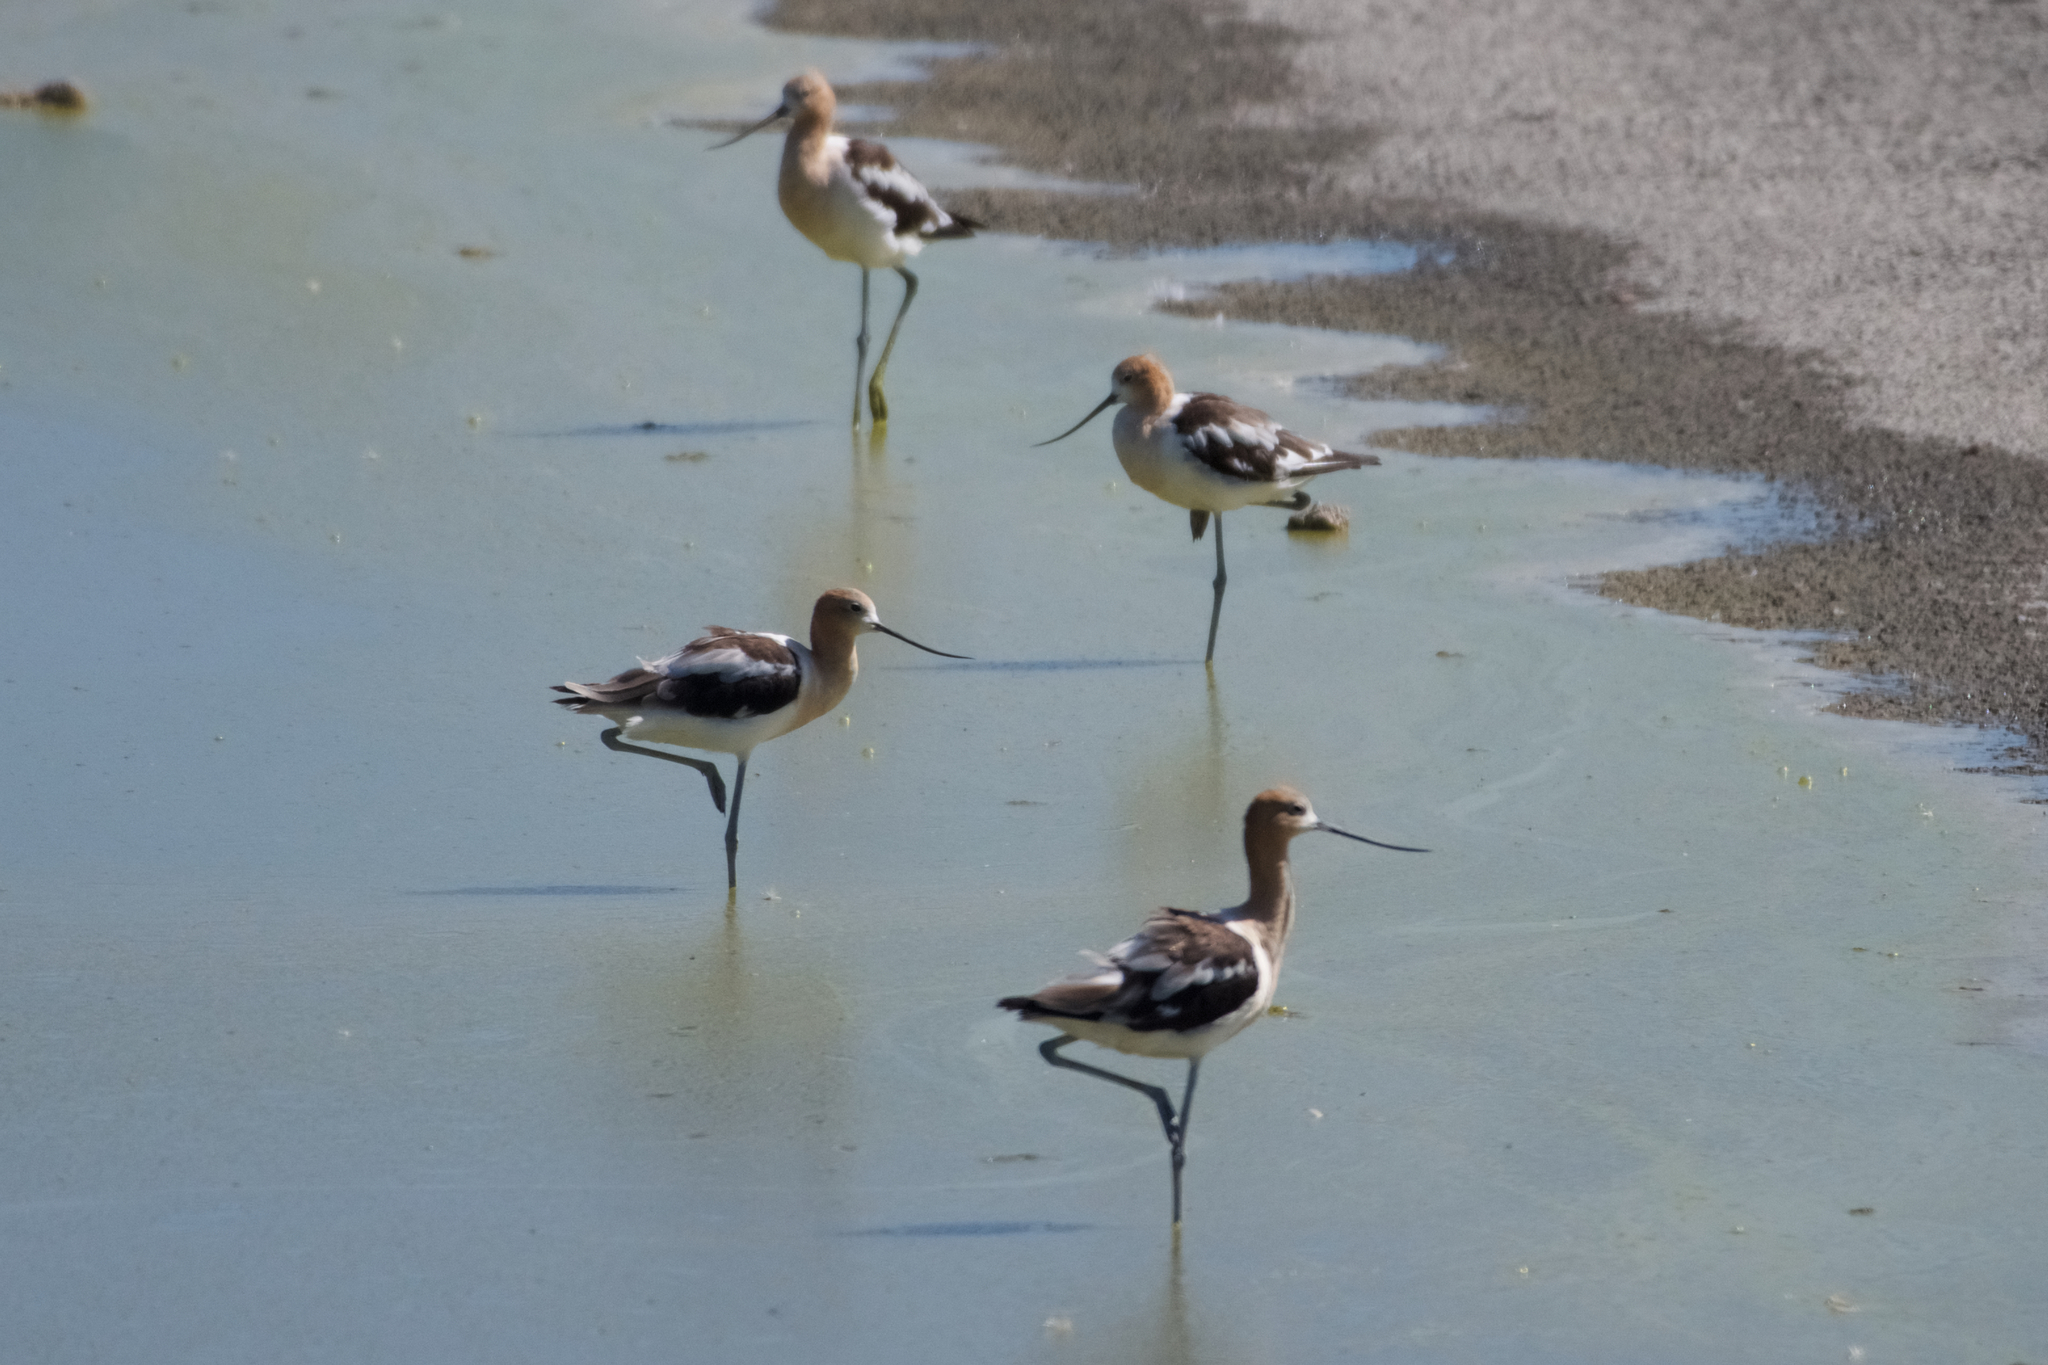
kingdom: Animalia
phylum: Chordata
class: Aves
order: Charadriiformes
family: Recurvirostridae
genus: Recurvirostra
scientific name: Recurvirostra americana
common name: American avocet
